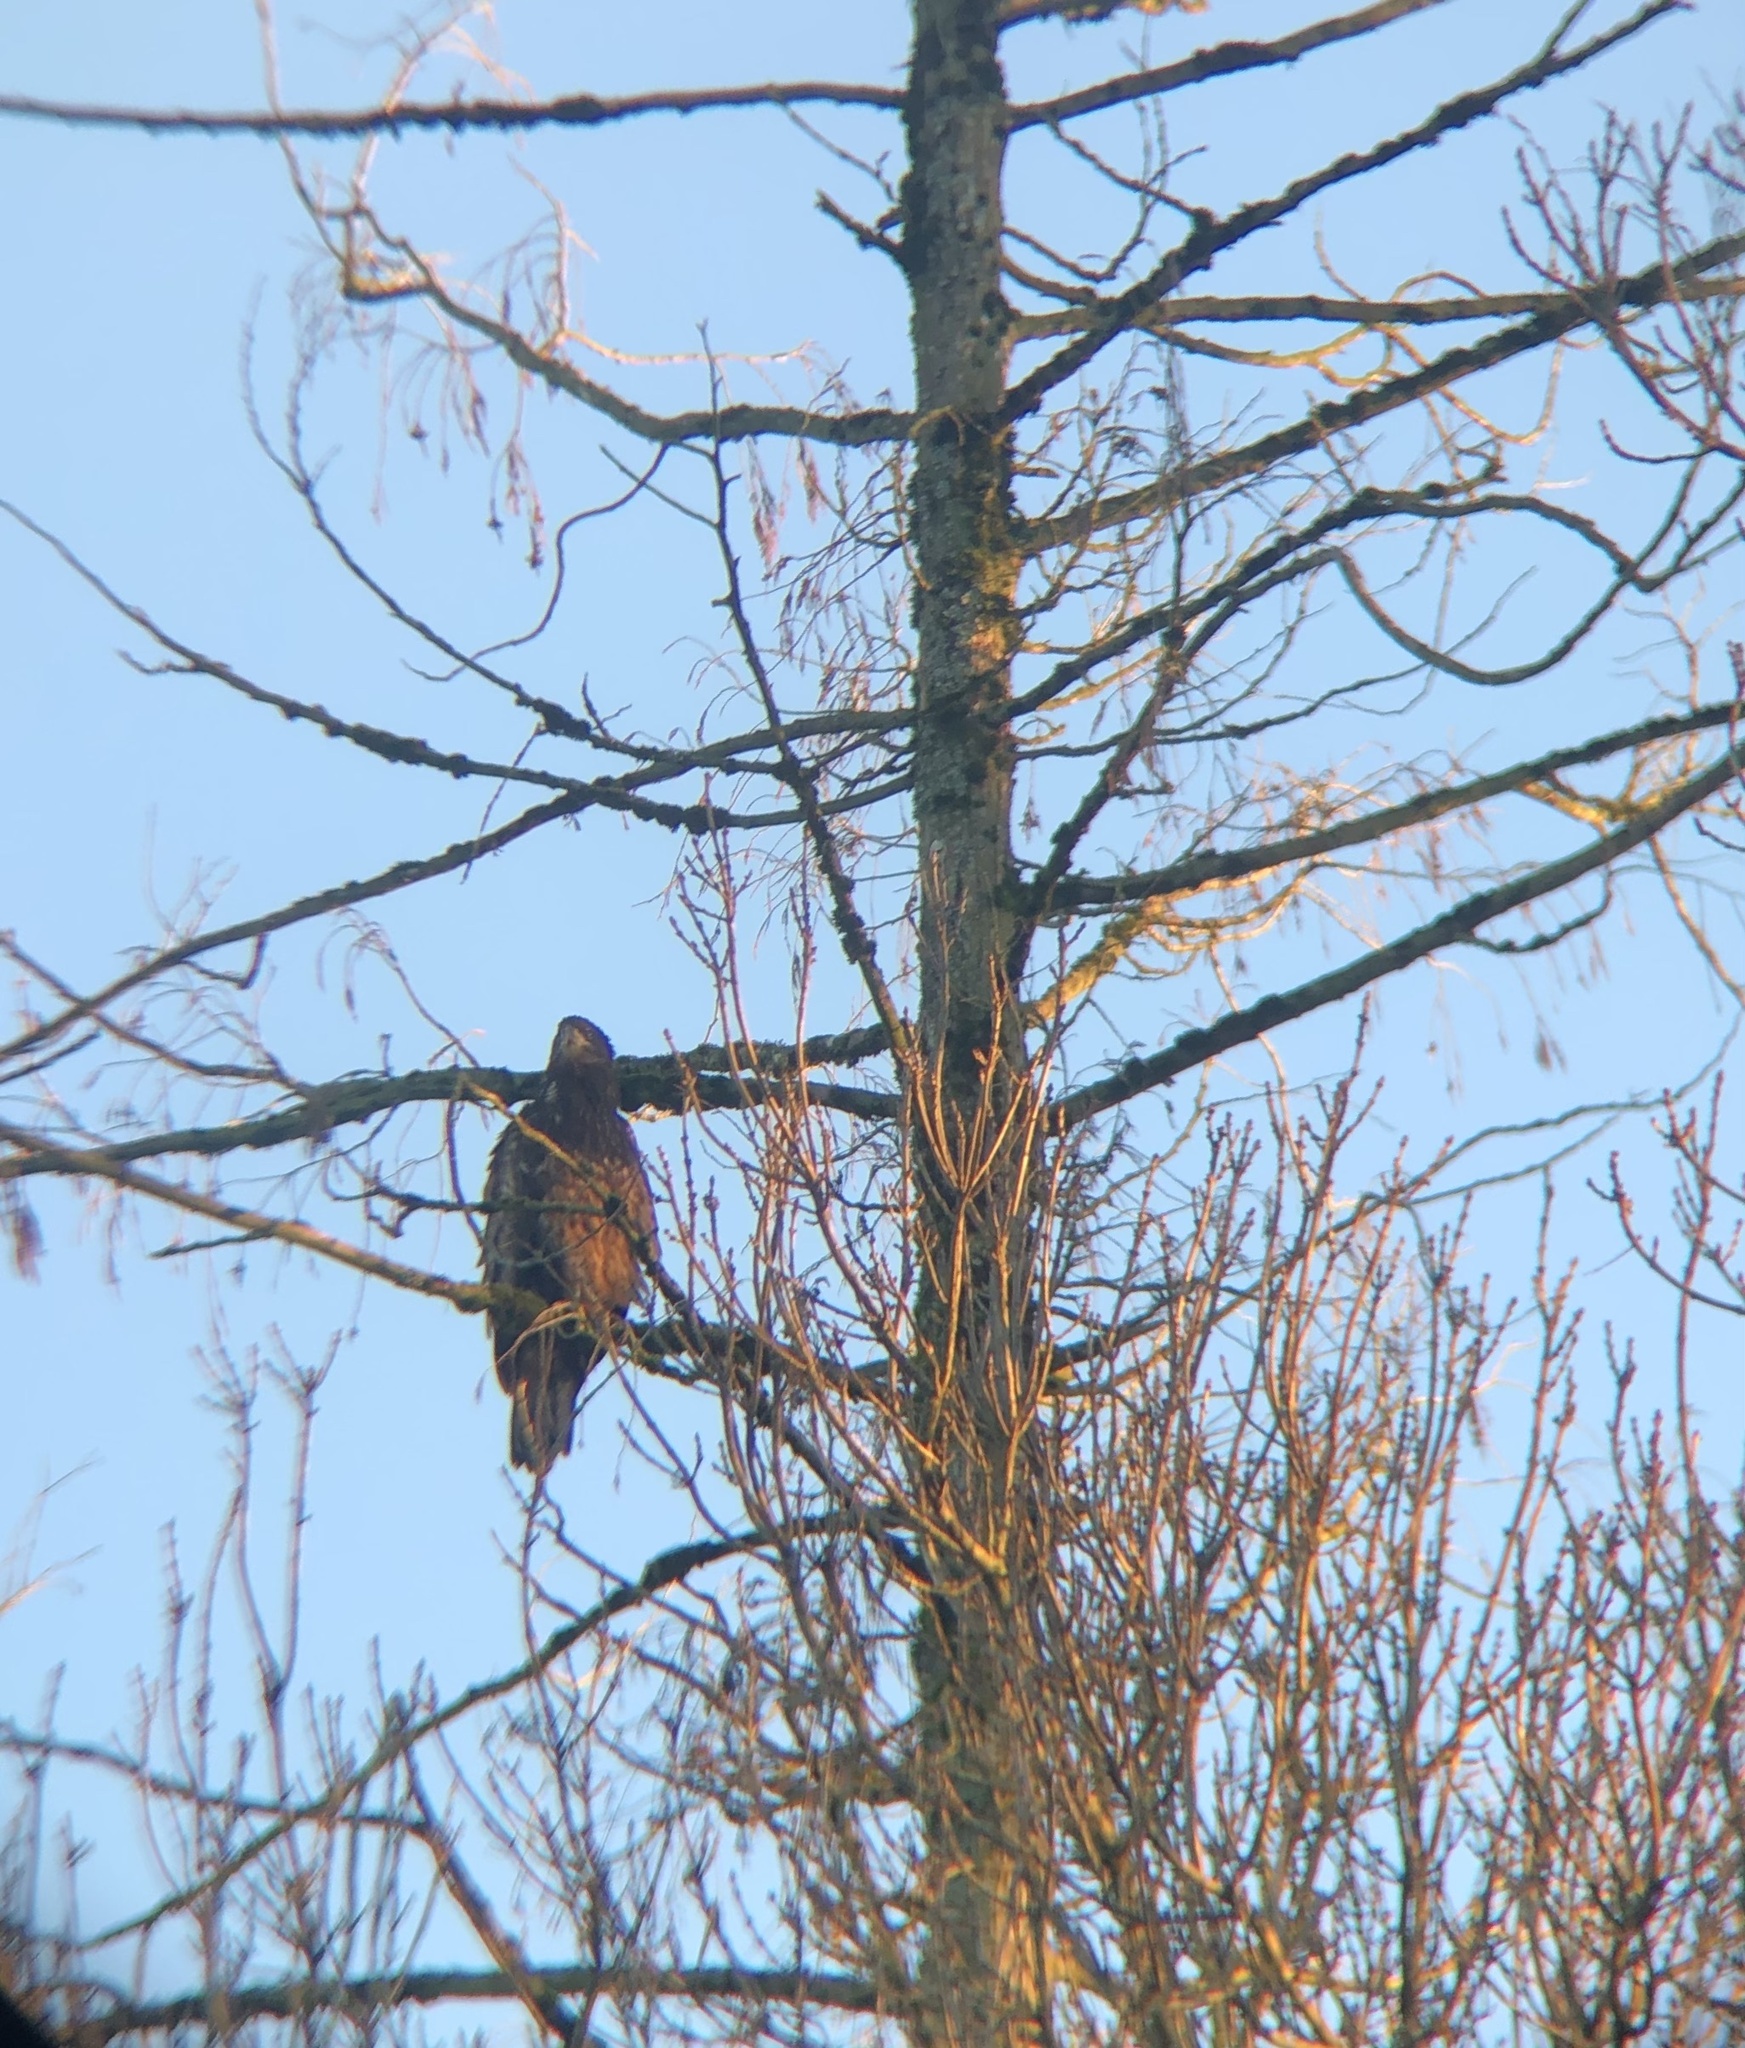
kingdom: Animalia
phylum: Chordata
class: Aves
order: Accipitriformes
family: Accipitridae
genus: Haliaeetus
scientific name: Haliaeetus leucocephalus
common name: Bald eagle
